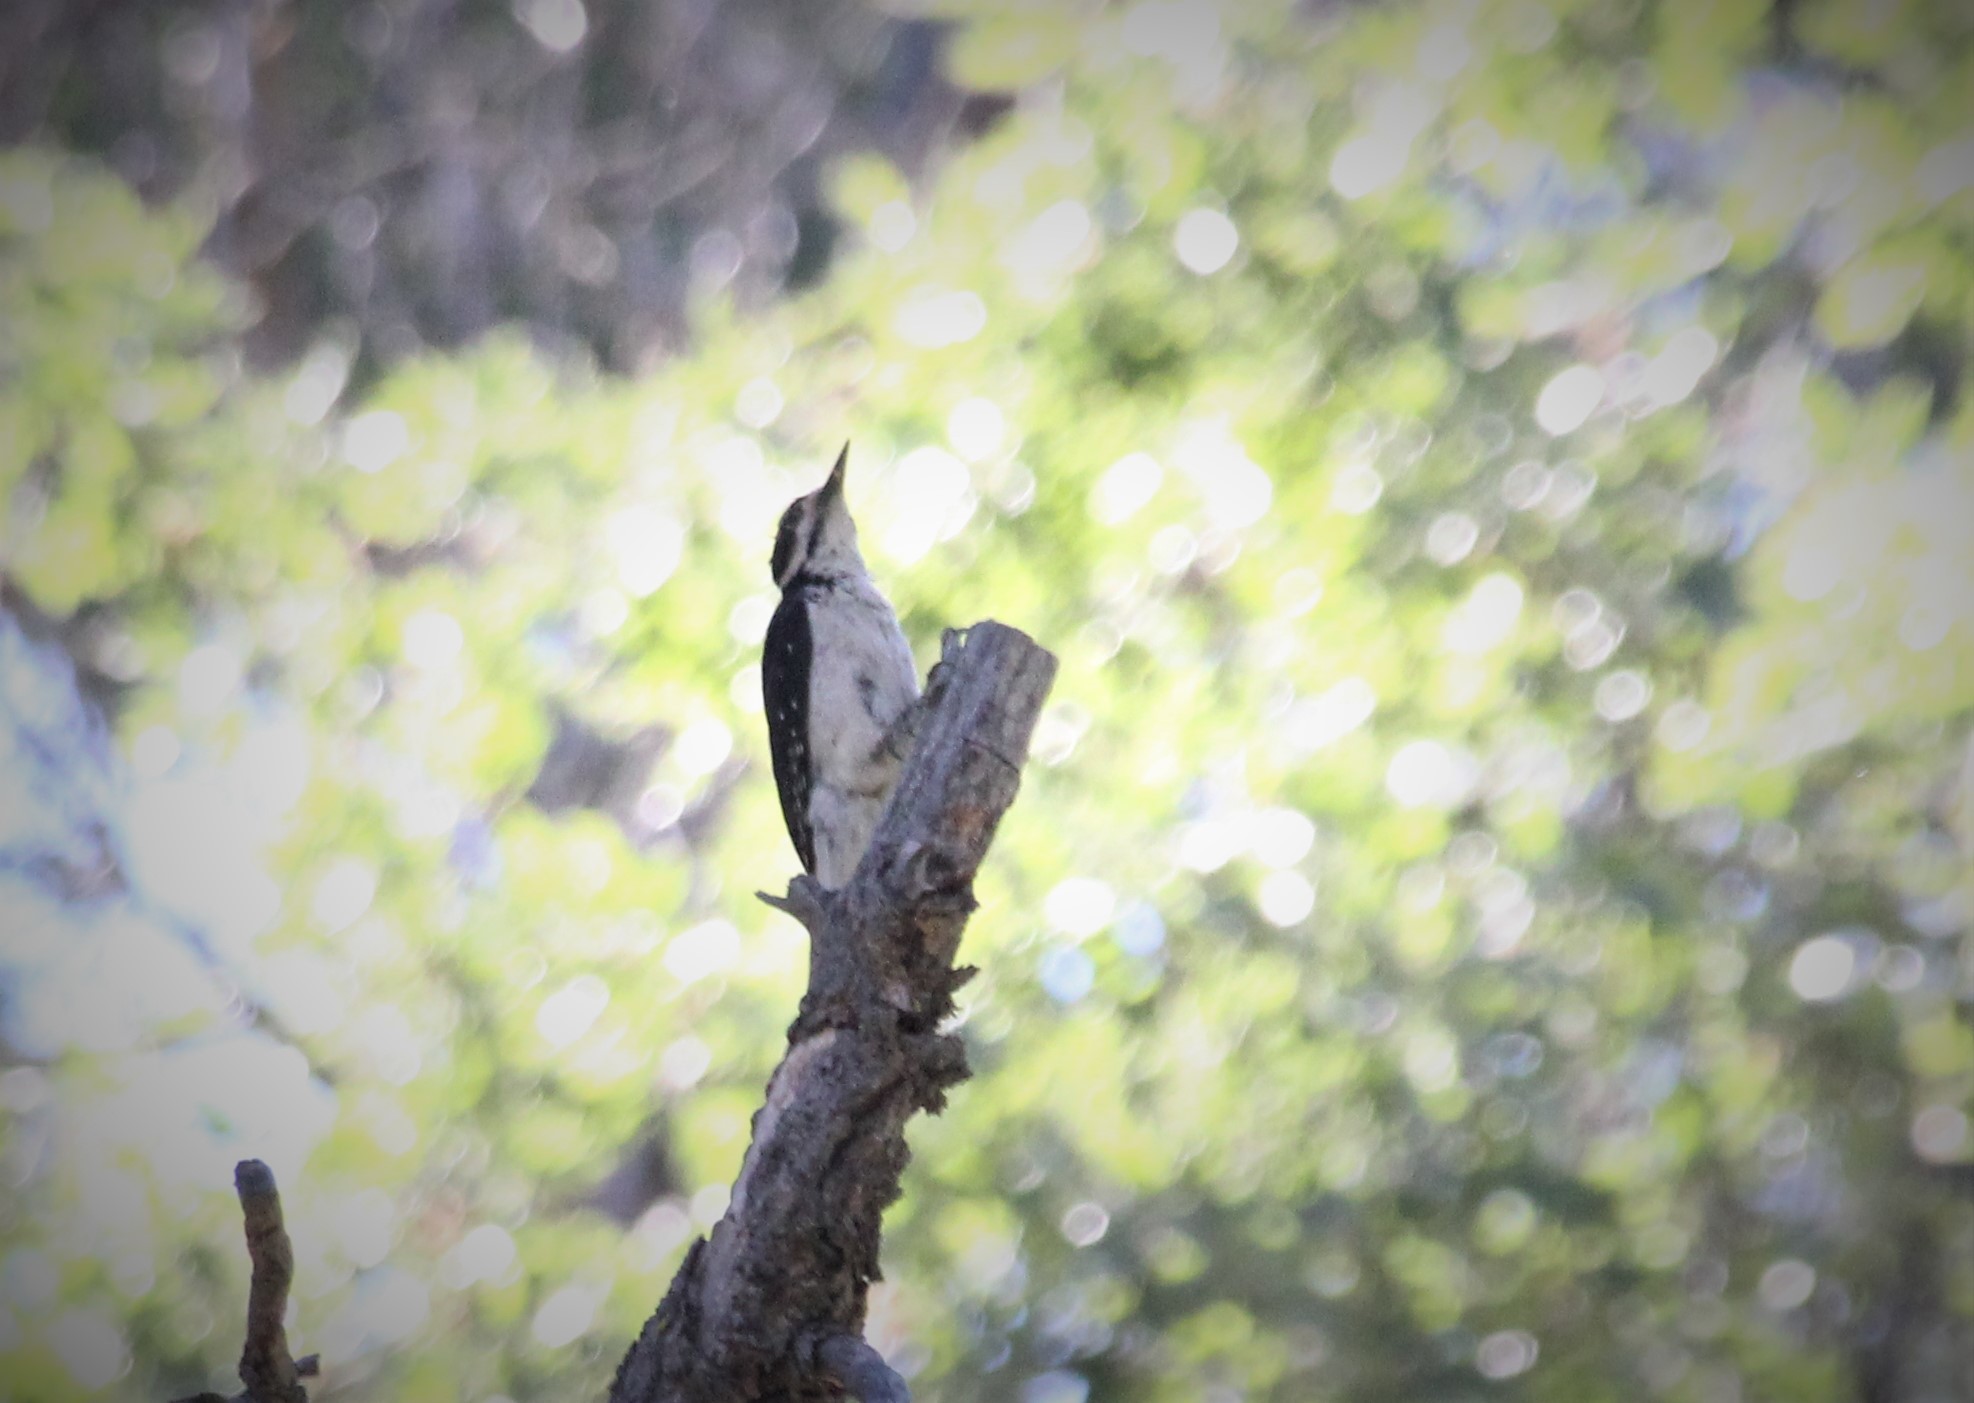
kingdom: Animalia
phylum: Chordata
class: Aves
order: Piciformes
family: Picidae
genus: Leuconotopicus
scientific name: Leuconotopicus villosus
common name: Hairy woodpecker
